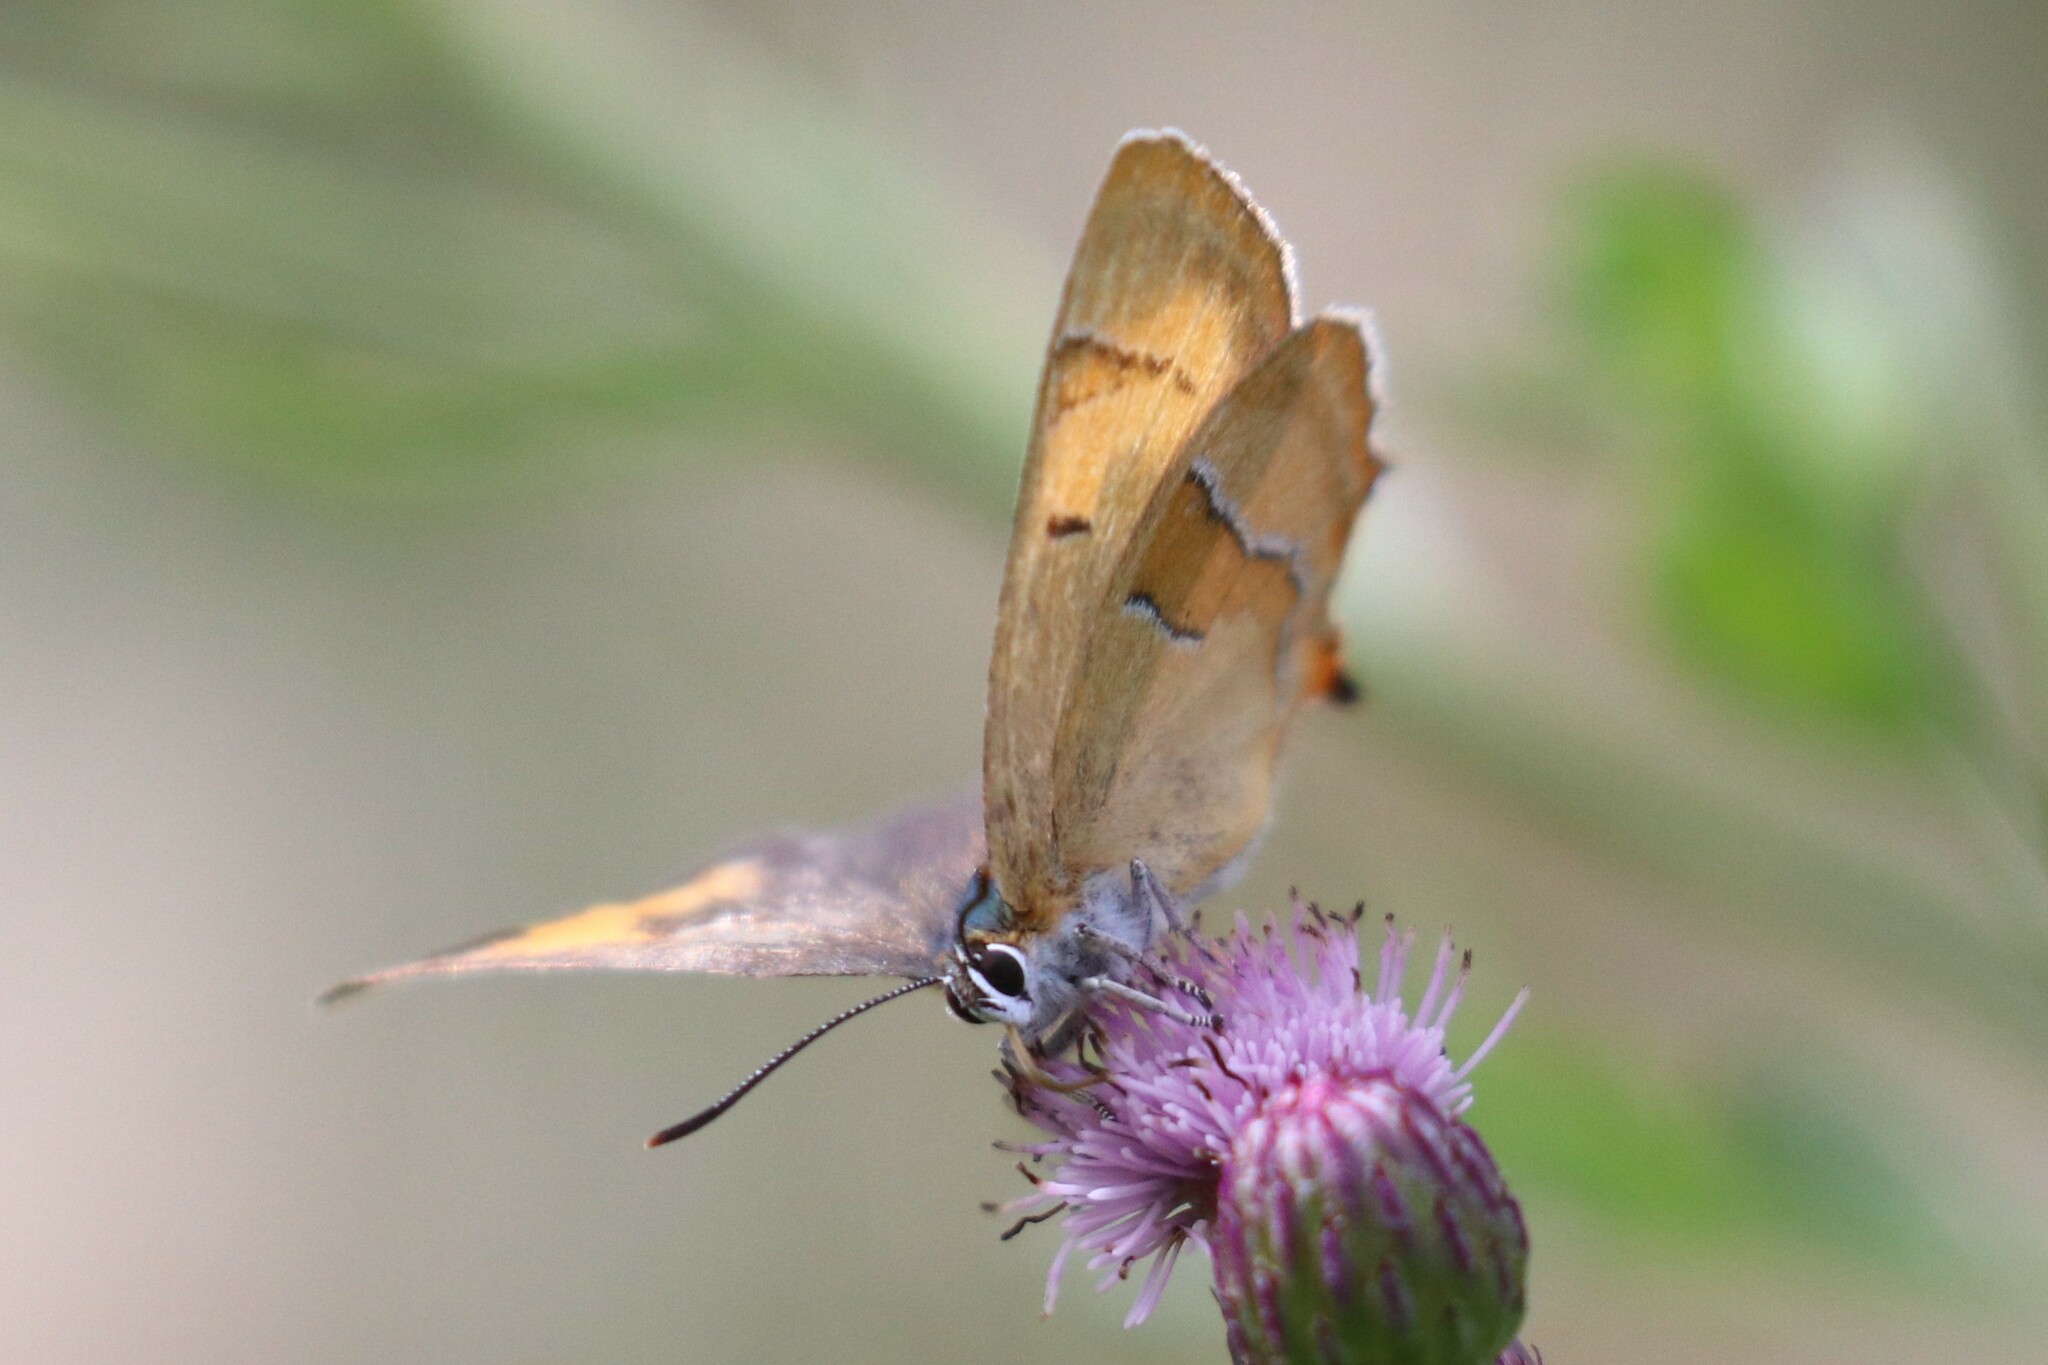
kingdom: Animalia
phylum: Arthropoda
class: Insecta
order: Lepidoptera
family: Lycaenidae
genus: Thecla
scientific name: Thecla betulae
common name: Brown hairstreak
